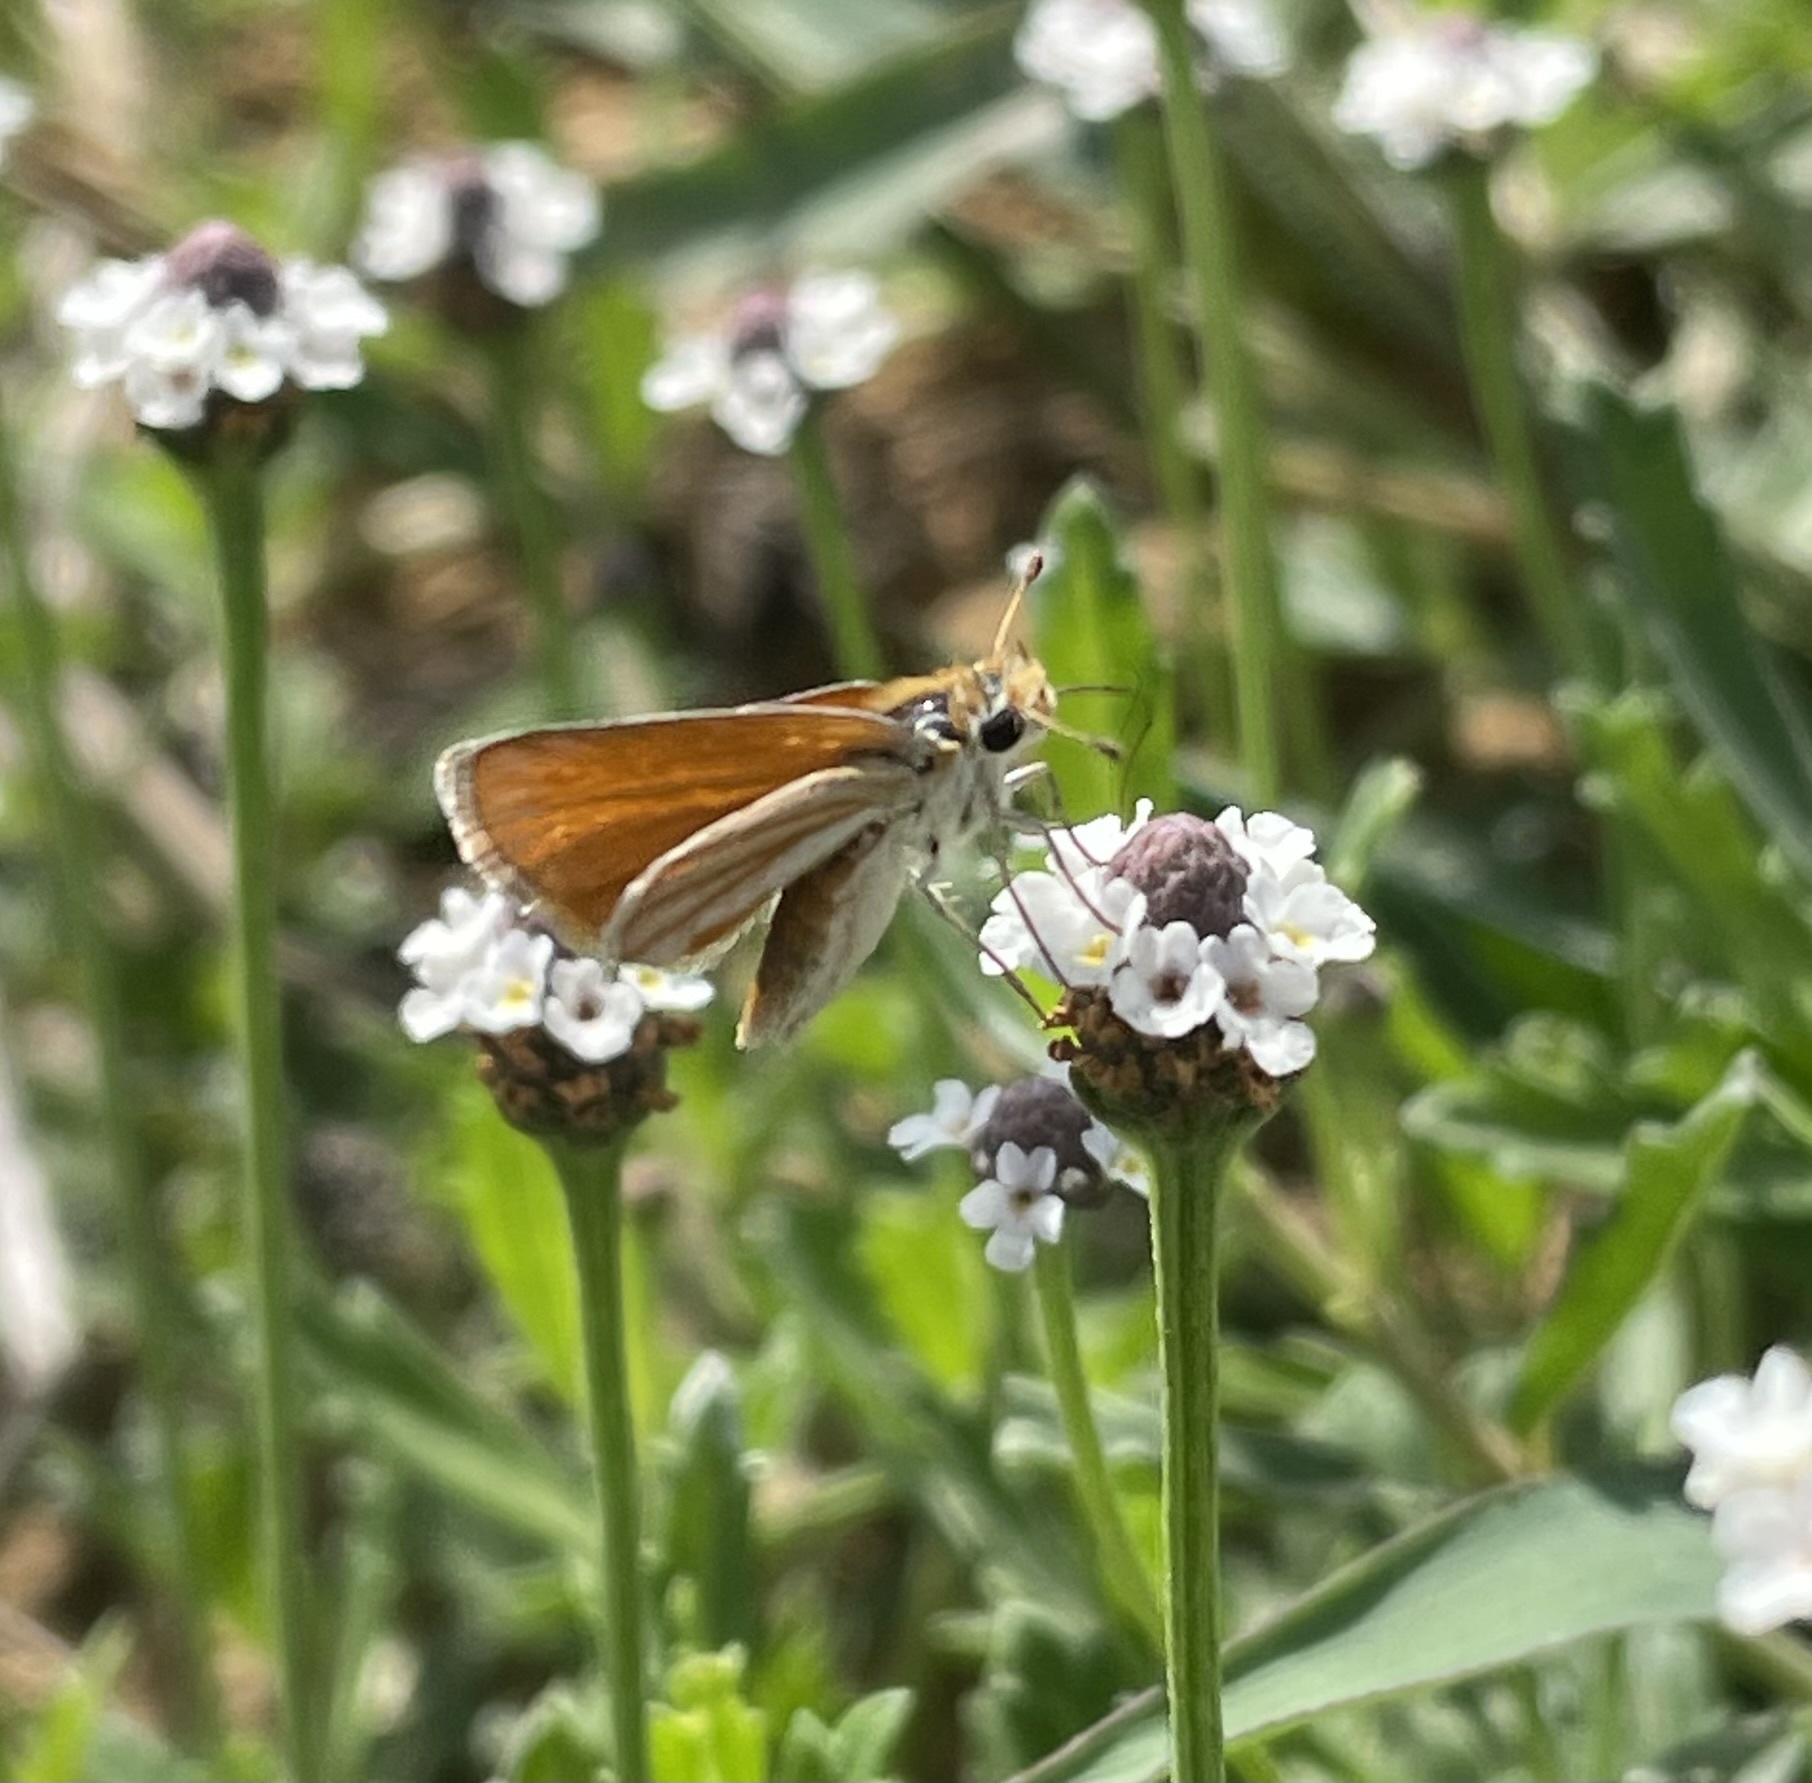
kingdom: Animalia
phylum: Arthropoda
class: Insecta
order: Lepidoptera
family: Hesperiidae
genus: Copaeodes
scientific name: Copaeodes minima
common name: Southern skipperling
